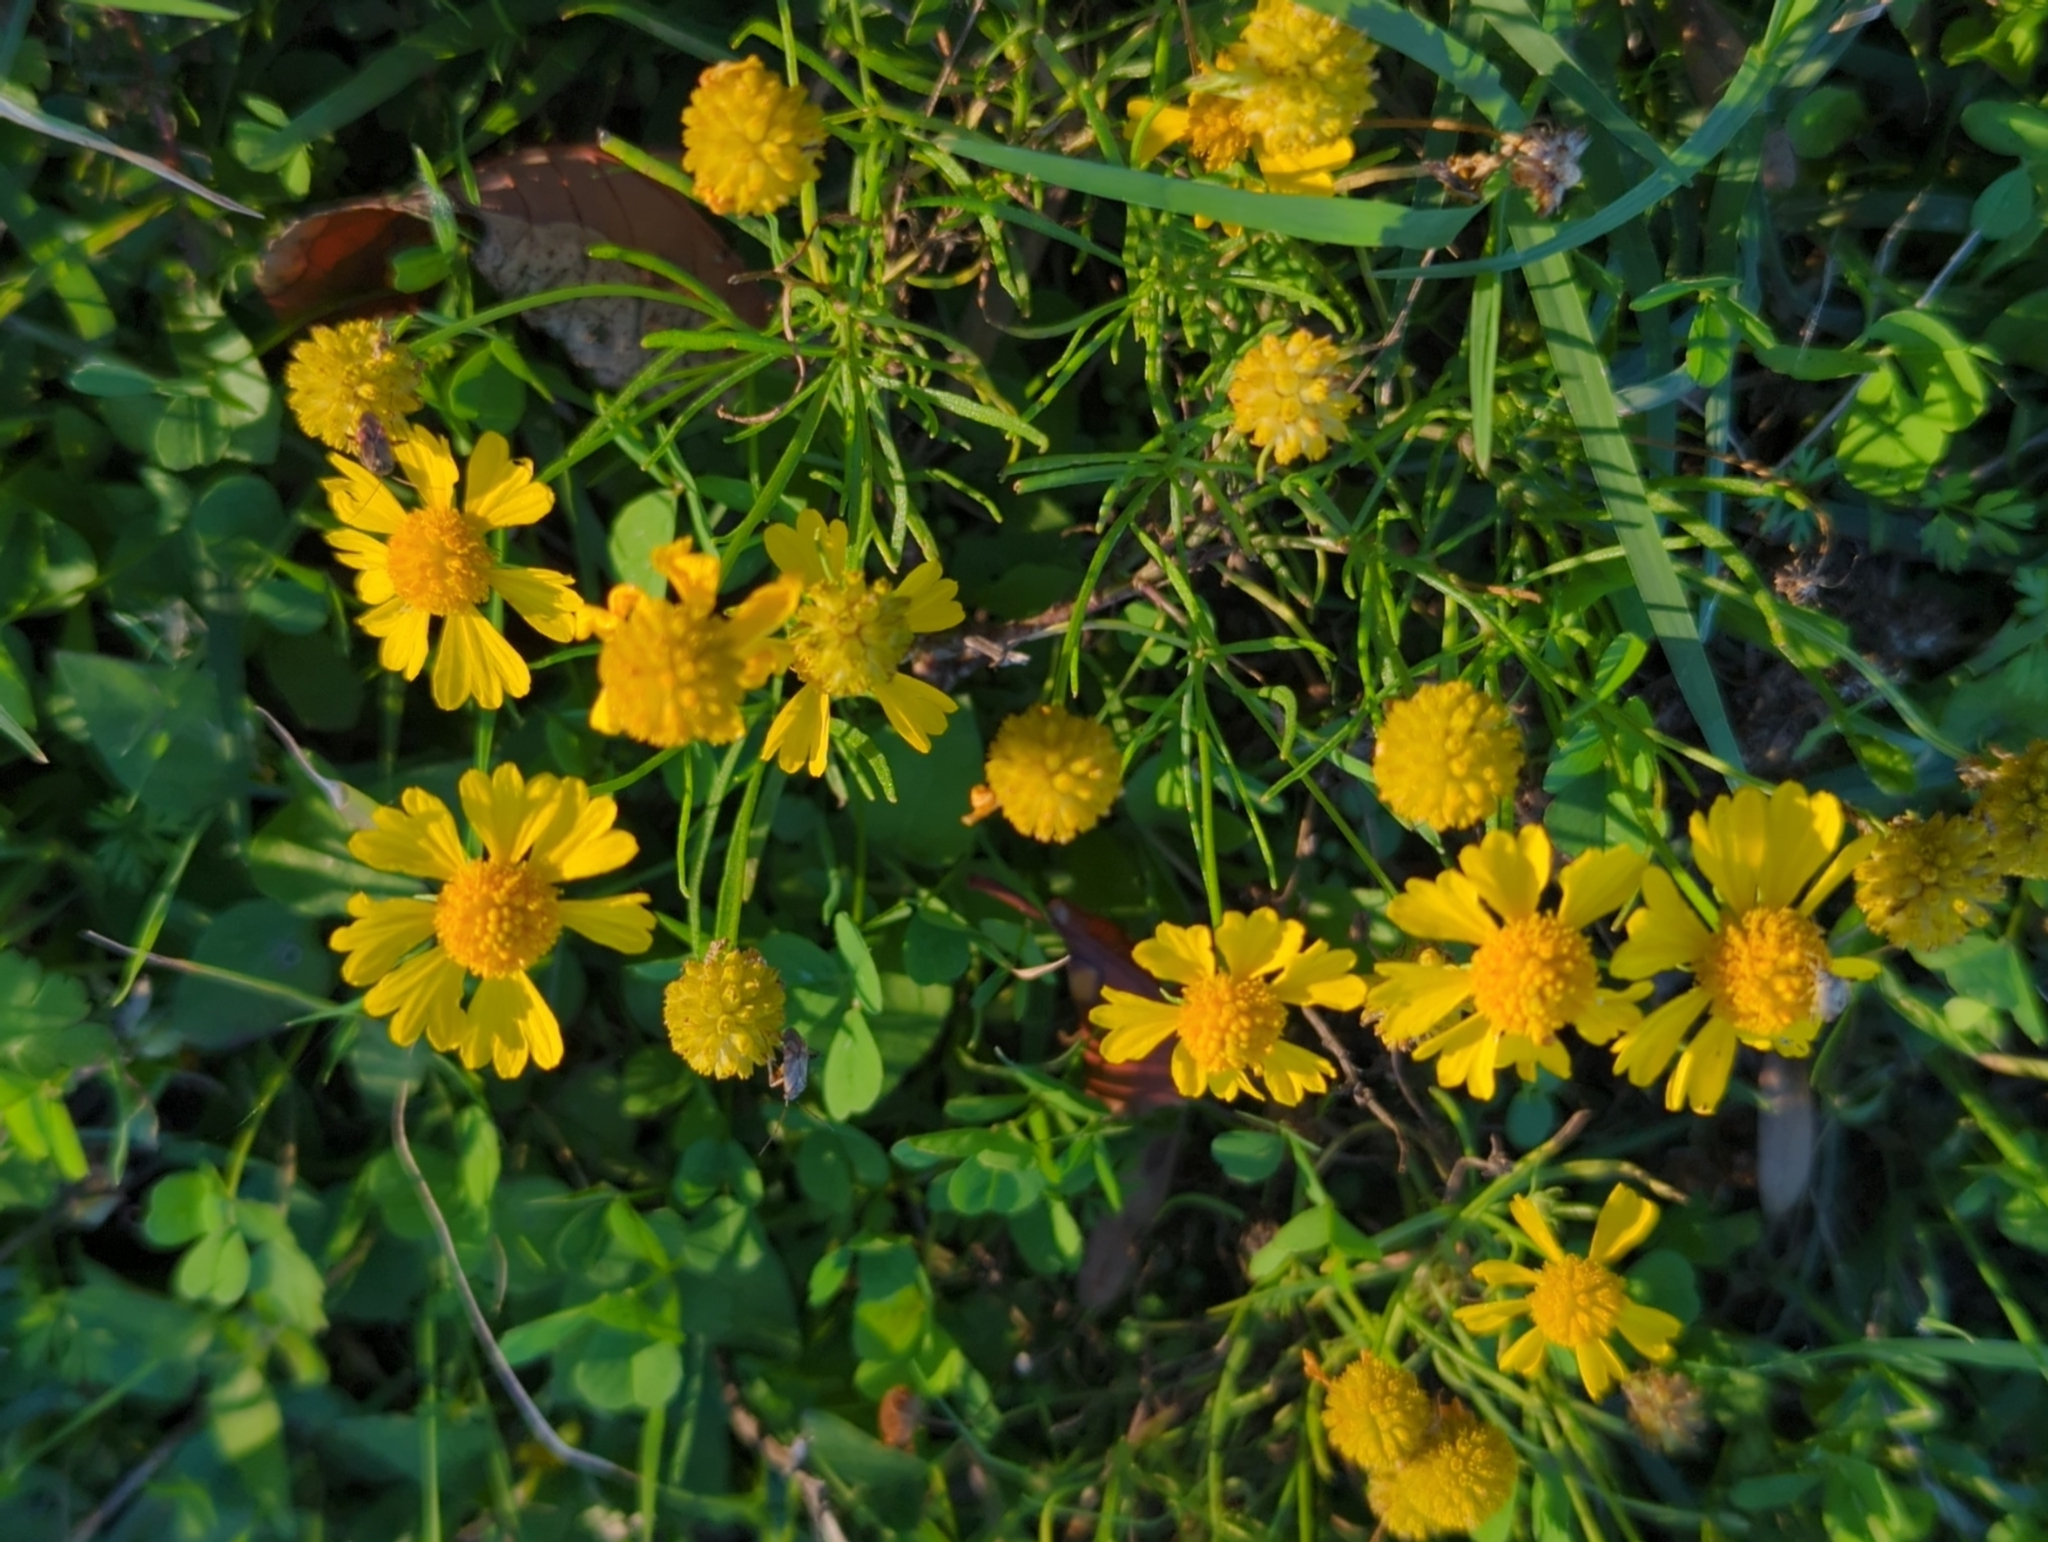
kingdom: Plantae
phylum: Tracheophyta
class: Magnoliopsida
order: Asterales
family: Asteraceae
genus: Helenium
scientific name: Helenium amarum
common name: Bitter sneezeweed
